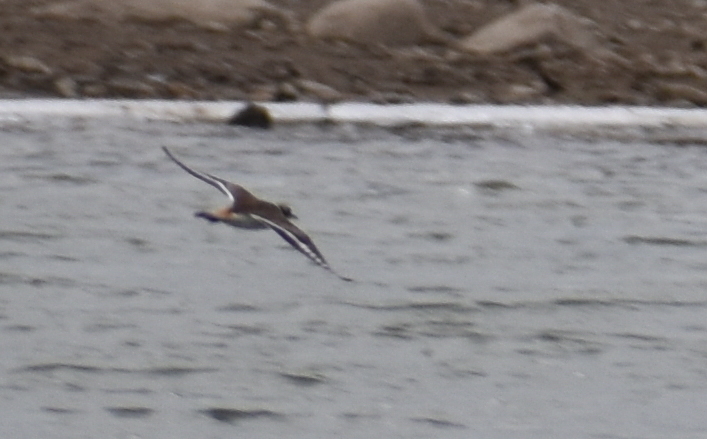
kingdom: Animalia
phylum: Chordata
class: Aves
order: Charadriiformes
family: Charadriidae
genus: Charadrius
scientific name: Charadrius vociferus
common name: Killdeer
